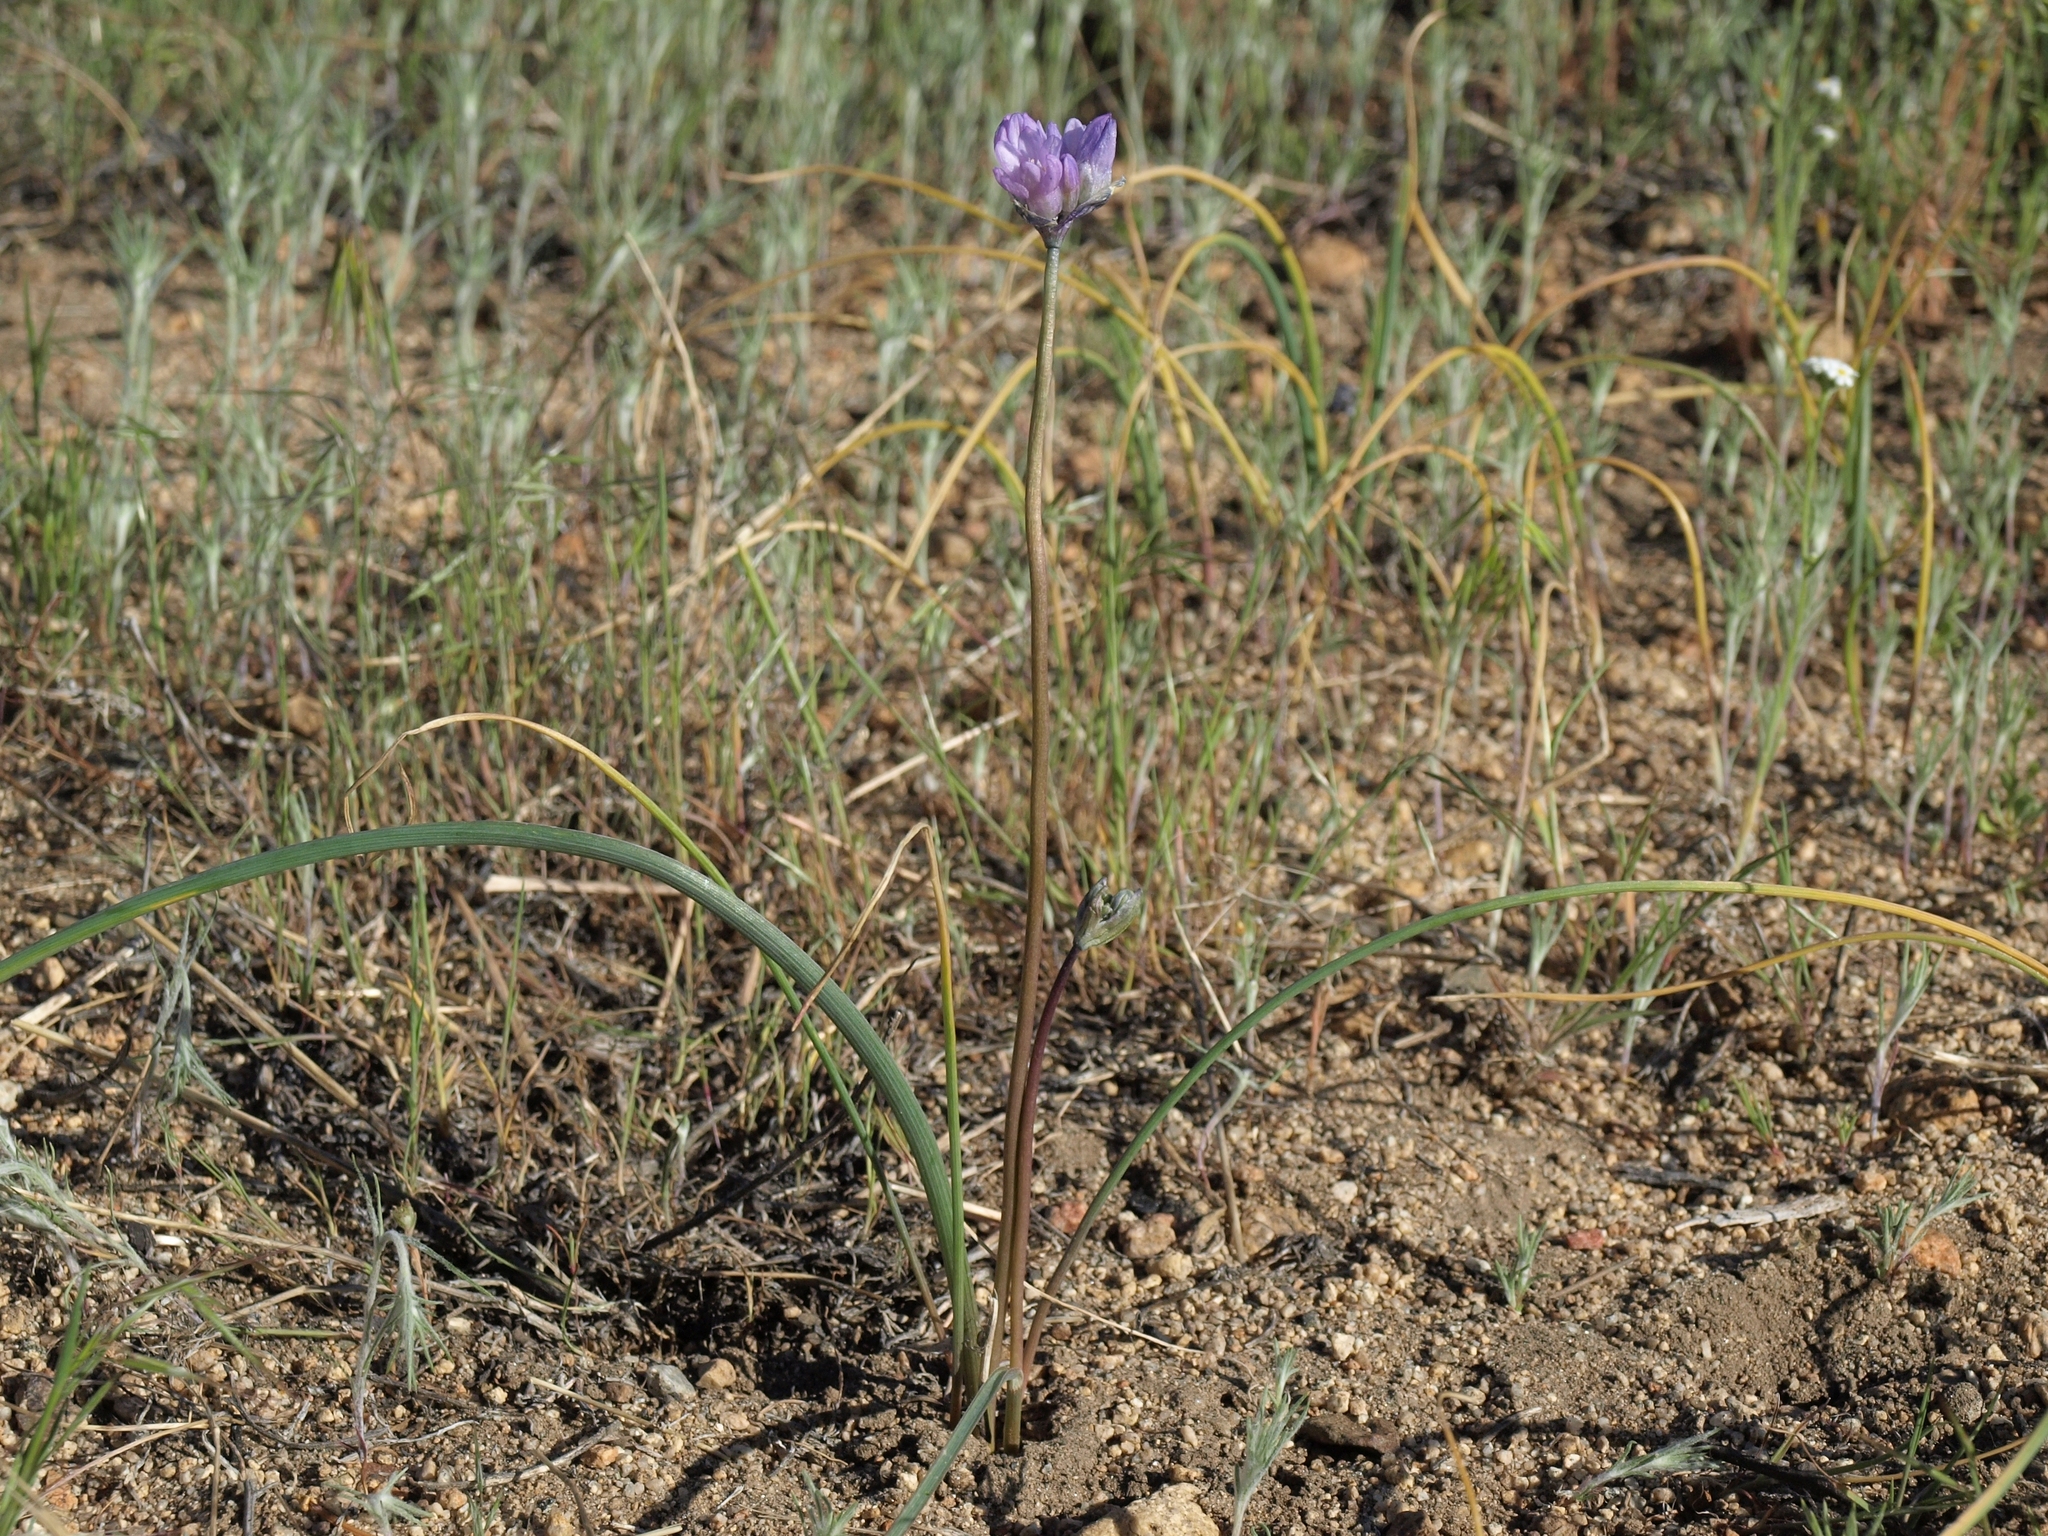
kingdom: Plantae
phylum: Tracheophyta
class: Liliopsida
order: Asparagales
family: Asparagaceae
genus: Dipterostemon
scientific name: Dipterostemon capitatus
